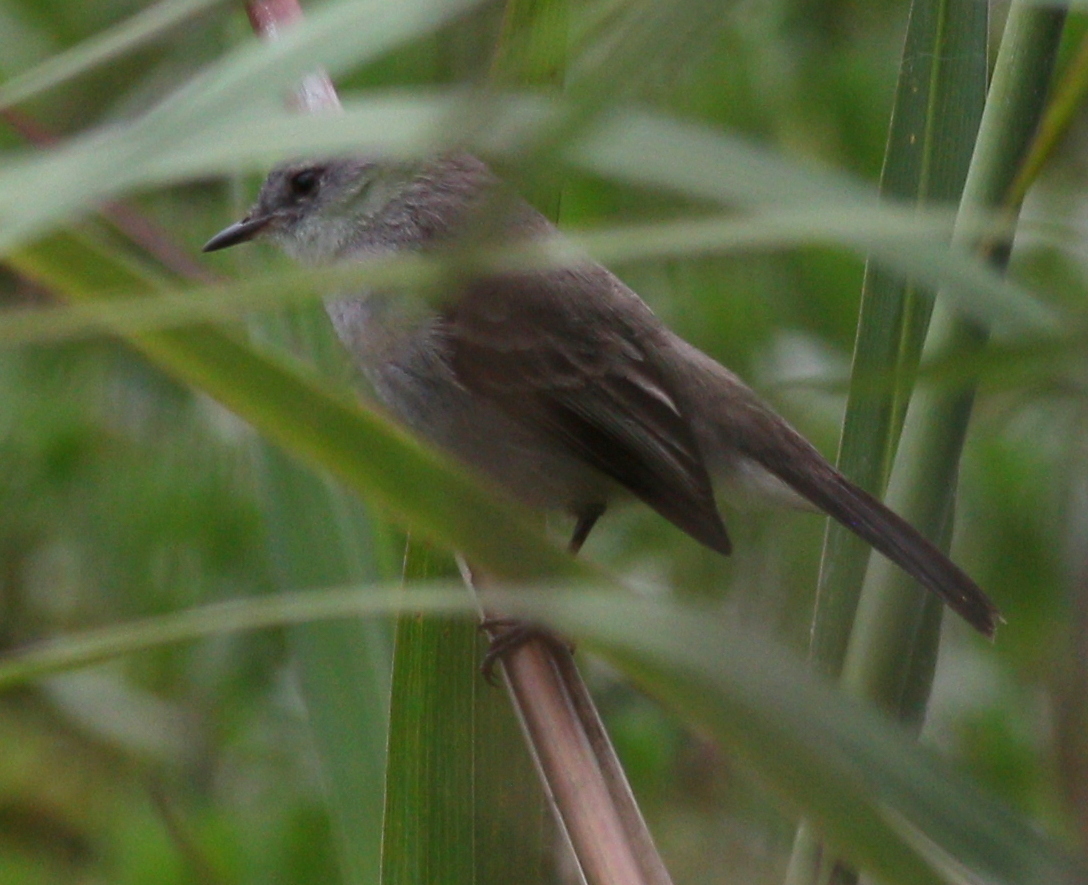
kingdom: Animalia
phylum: Chordata
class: Aves
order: Passeriformes
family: Tyrannidae
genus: Serpophaga
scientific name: Serpophaga nigricans
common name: Sooty tyrannulet
